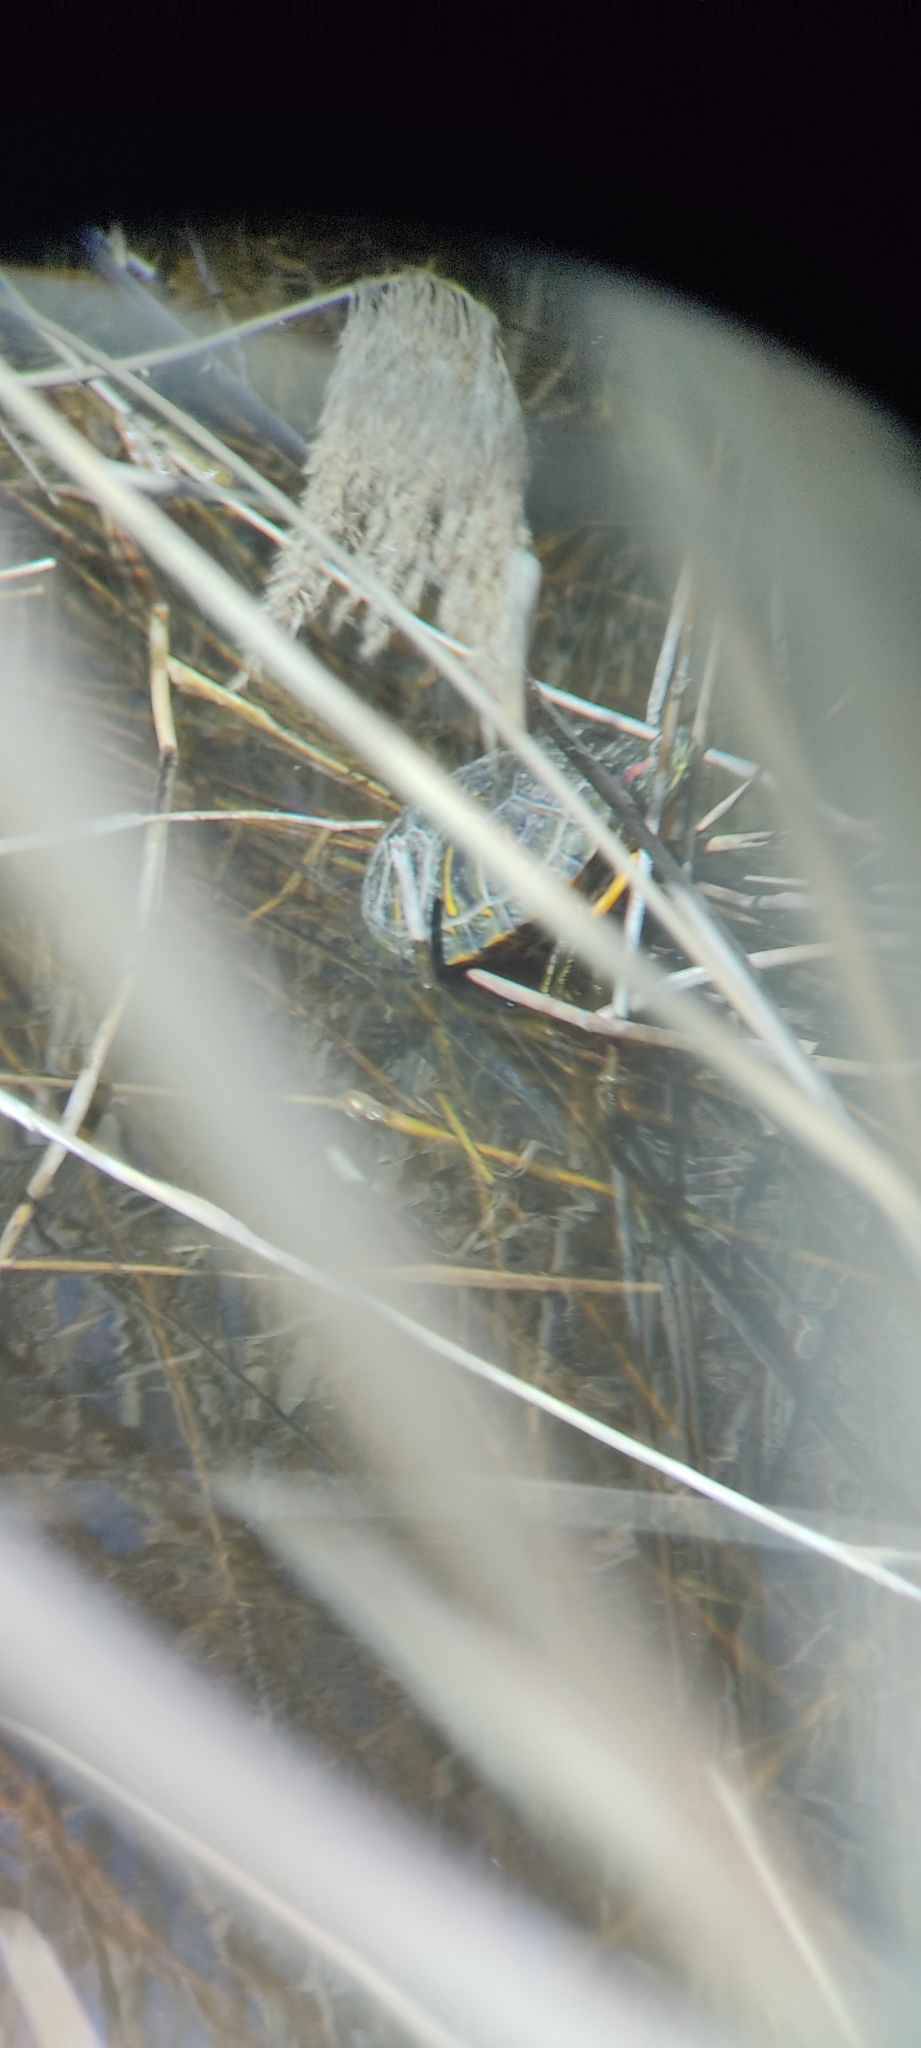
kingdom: Animalia
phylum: Chordata
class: Testudines
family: Emydidae
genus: Trachemys
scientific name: Trachemys scripta
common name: Slider
